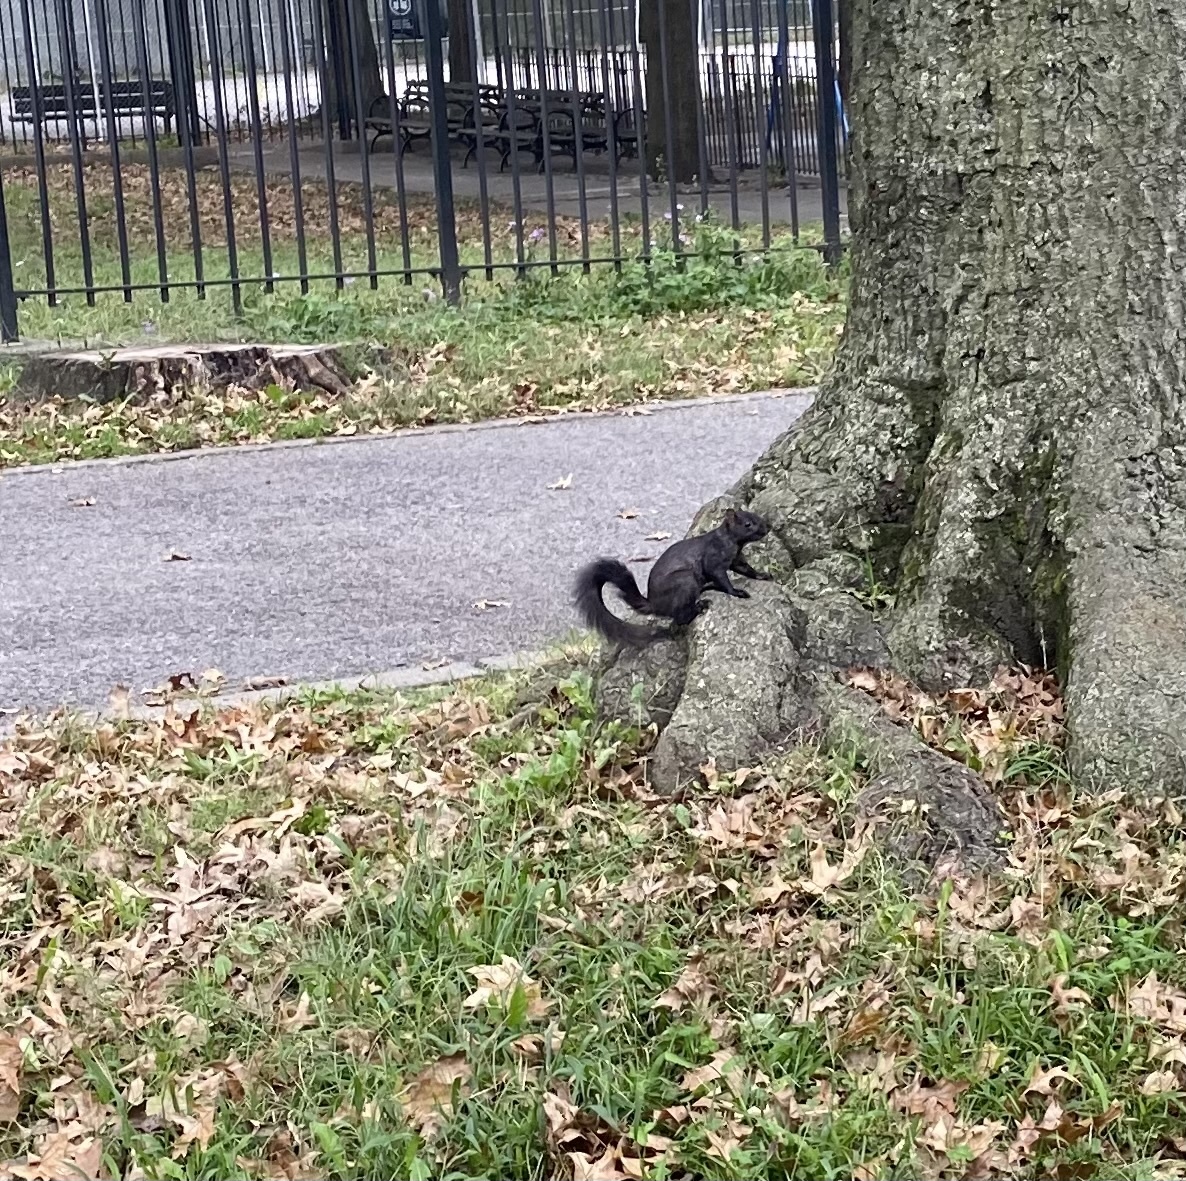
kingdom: Animalia
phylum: Chordata
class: Mammalia
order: Rodentia
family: Sciuridae
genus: Sciurus
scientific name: Sciurus carolinensis
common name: Eastern gray squirrel
